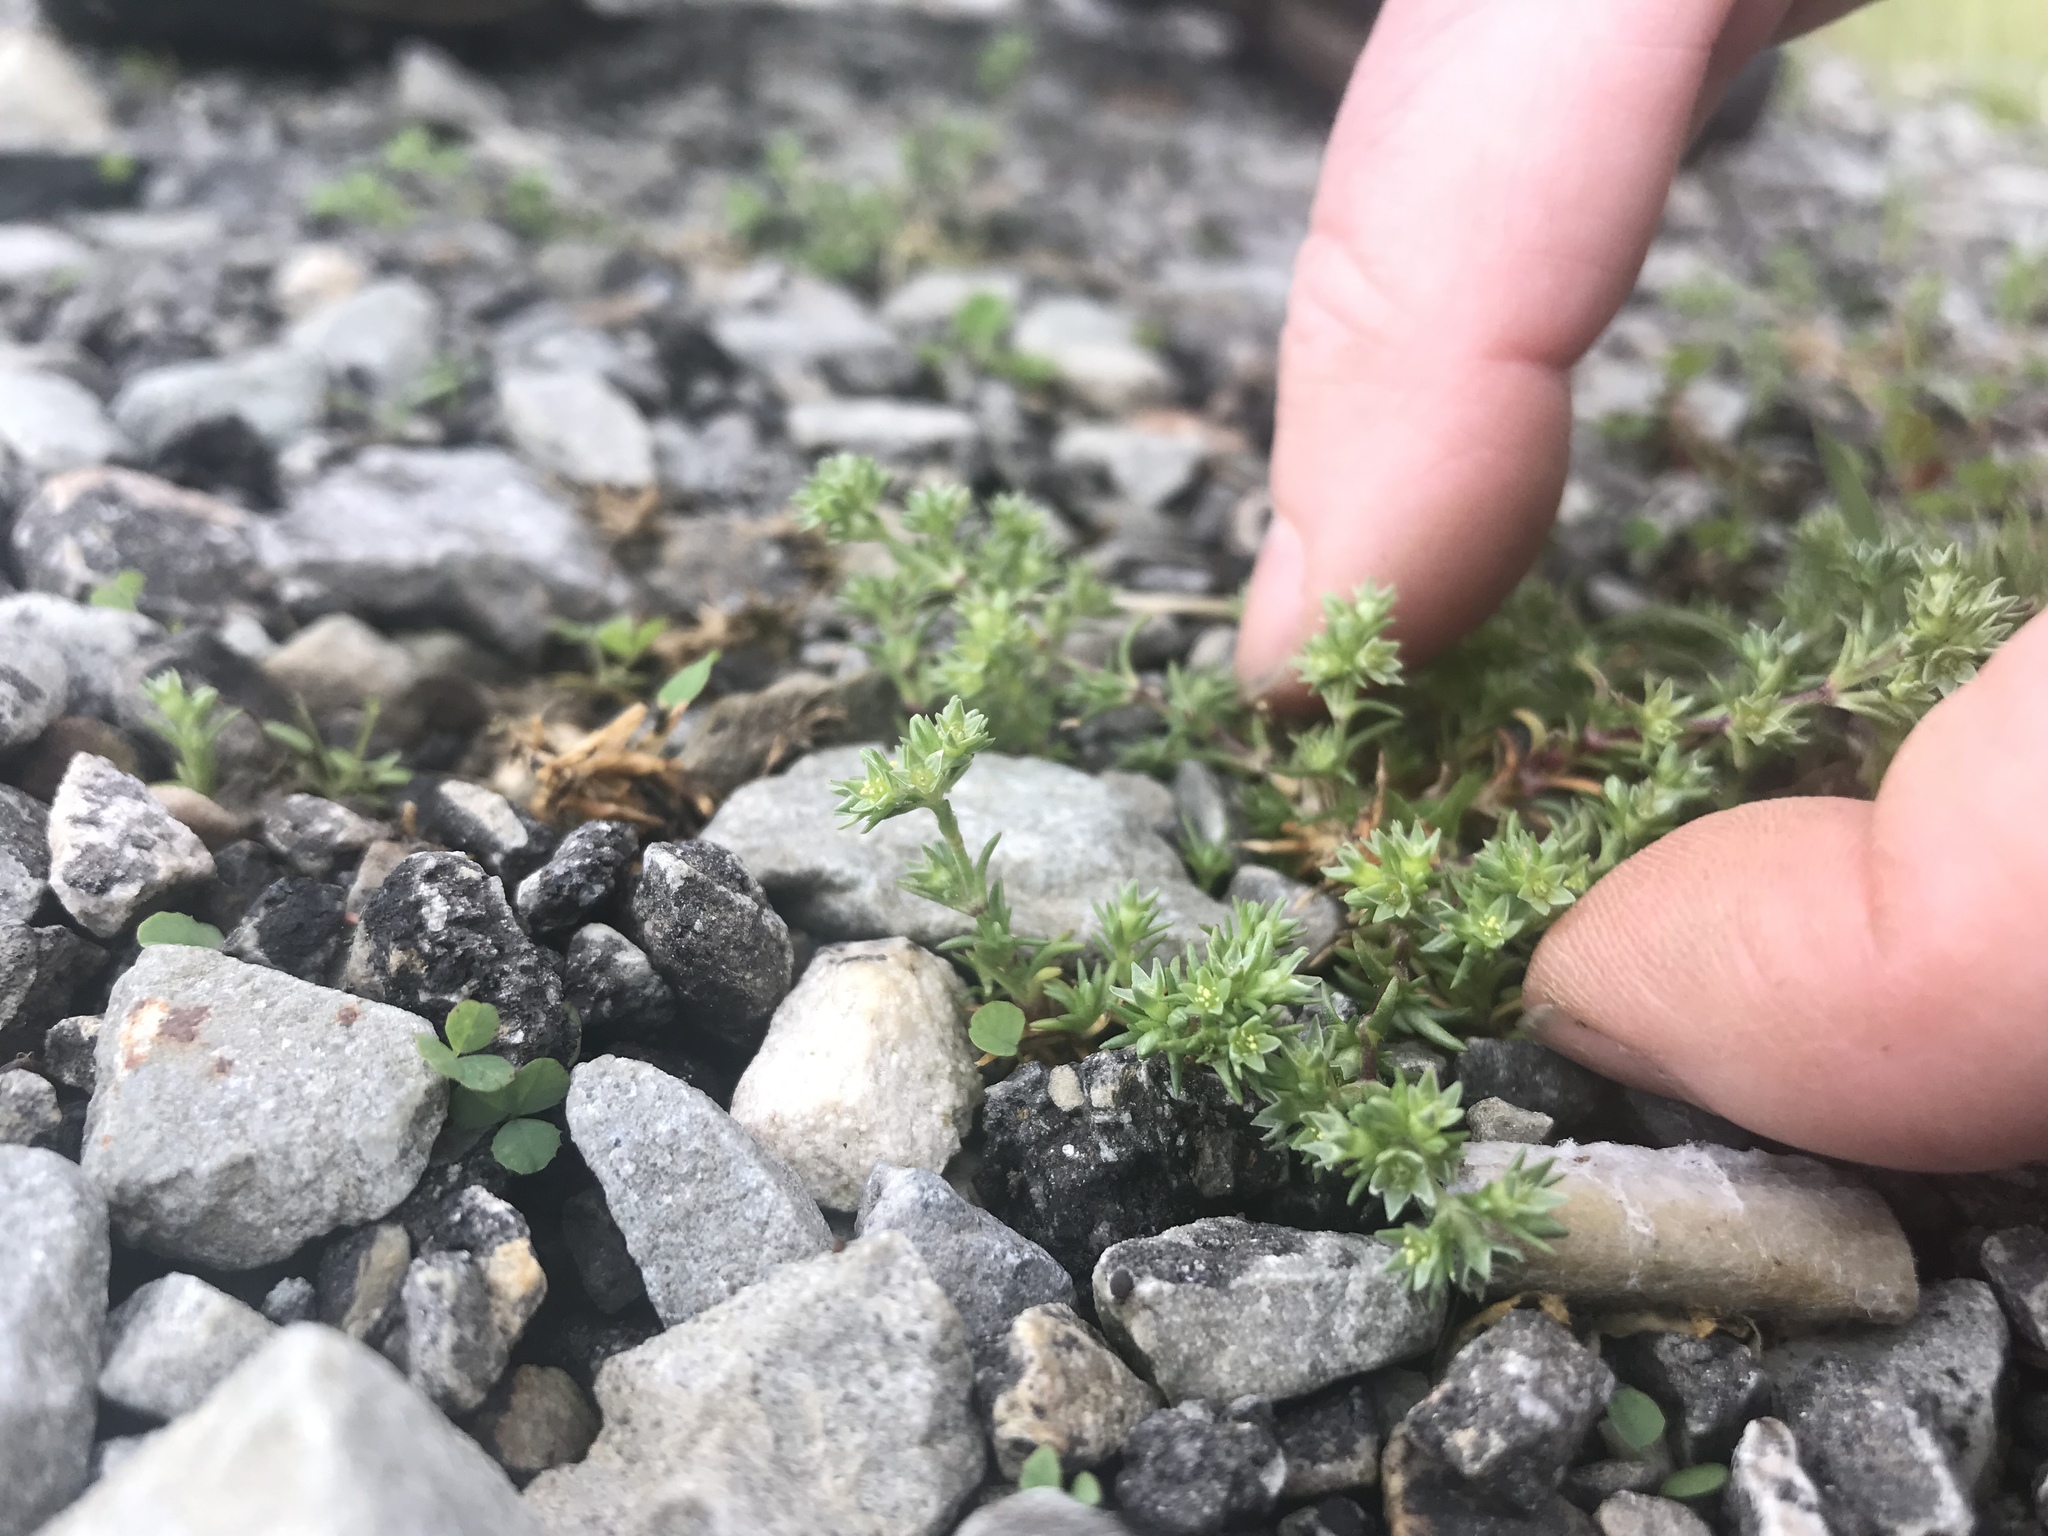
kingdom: Plantae
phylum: Tracheophyta
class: Magnoliopsida
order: Caryophyllales
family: Caryophyllaceae
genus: Scleranthus
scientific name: Scleranthus annuus
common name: Annual knawel
